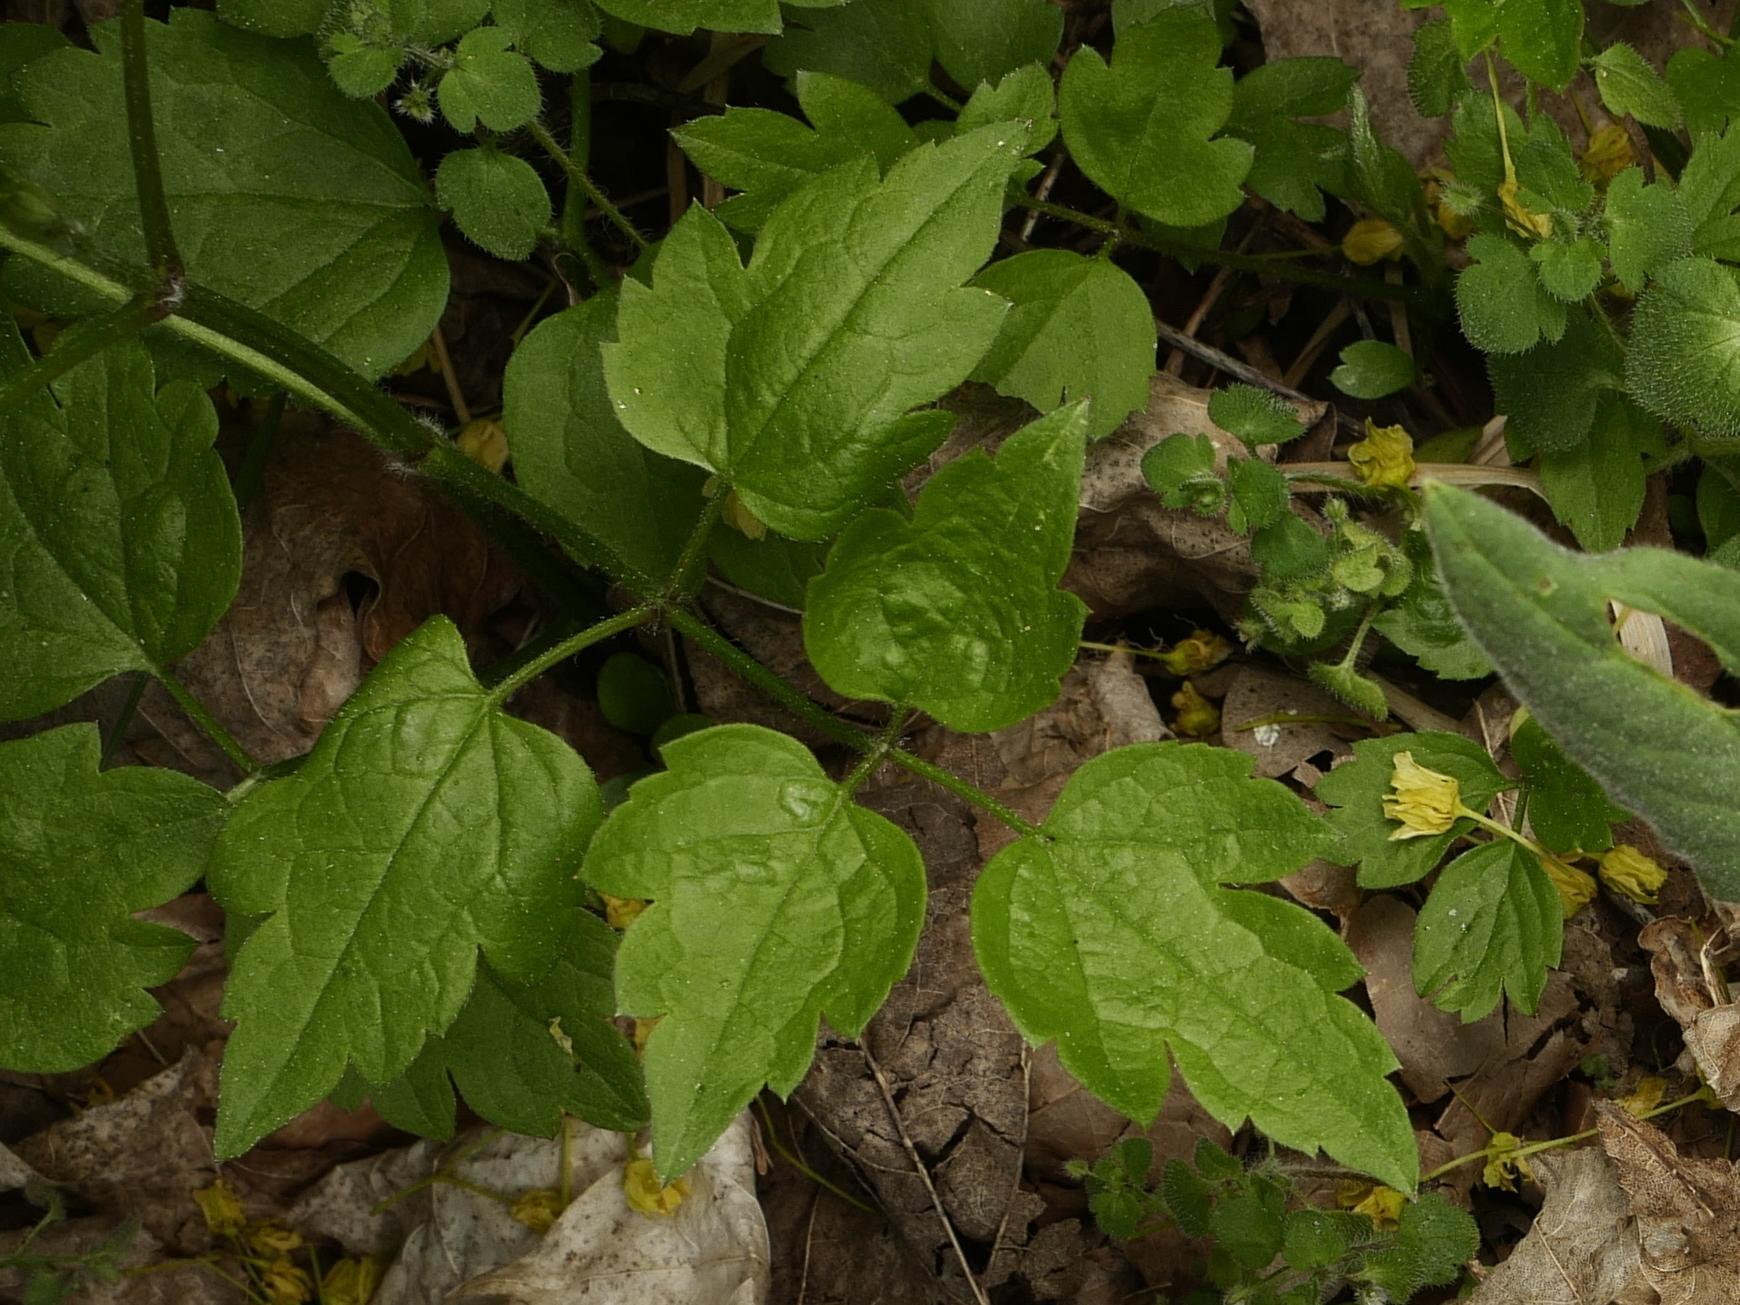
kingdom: Plantae
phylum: Tracheophyta
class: Magnoliopsida
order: Ranunculales
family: Ranunculaceae
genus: Clematis
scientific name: Clematis vitalba
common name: Evergreen clematis
